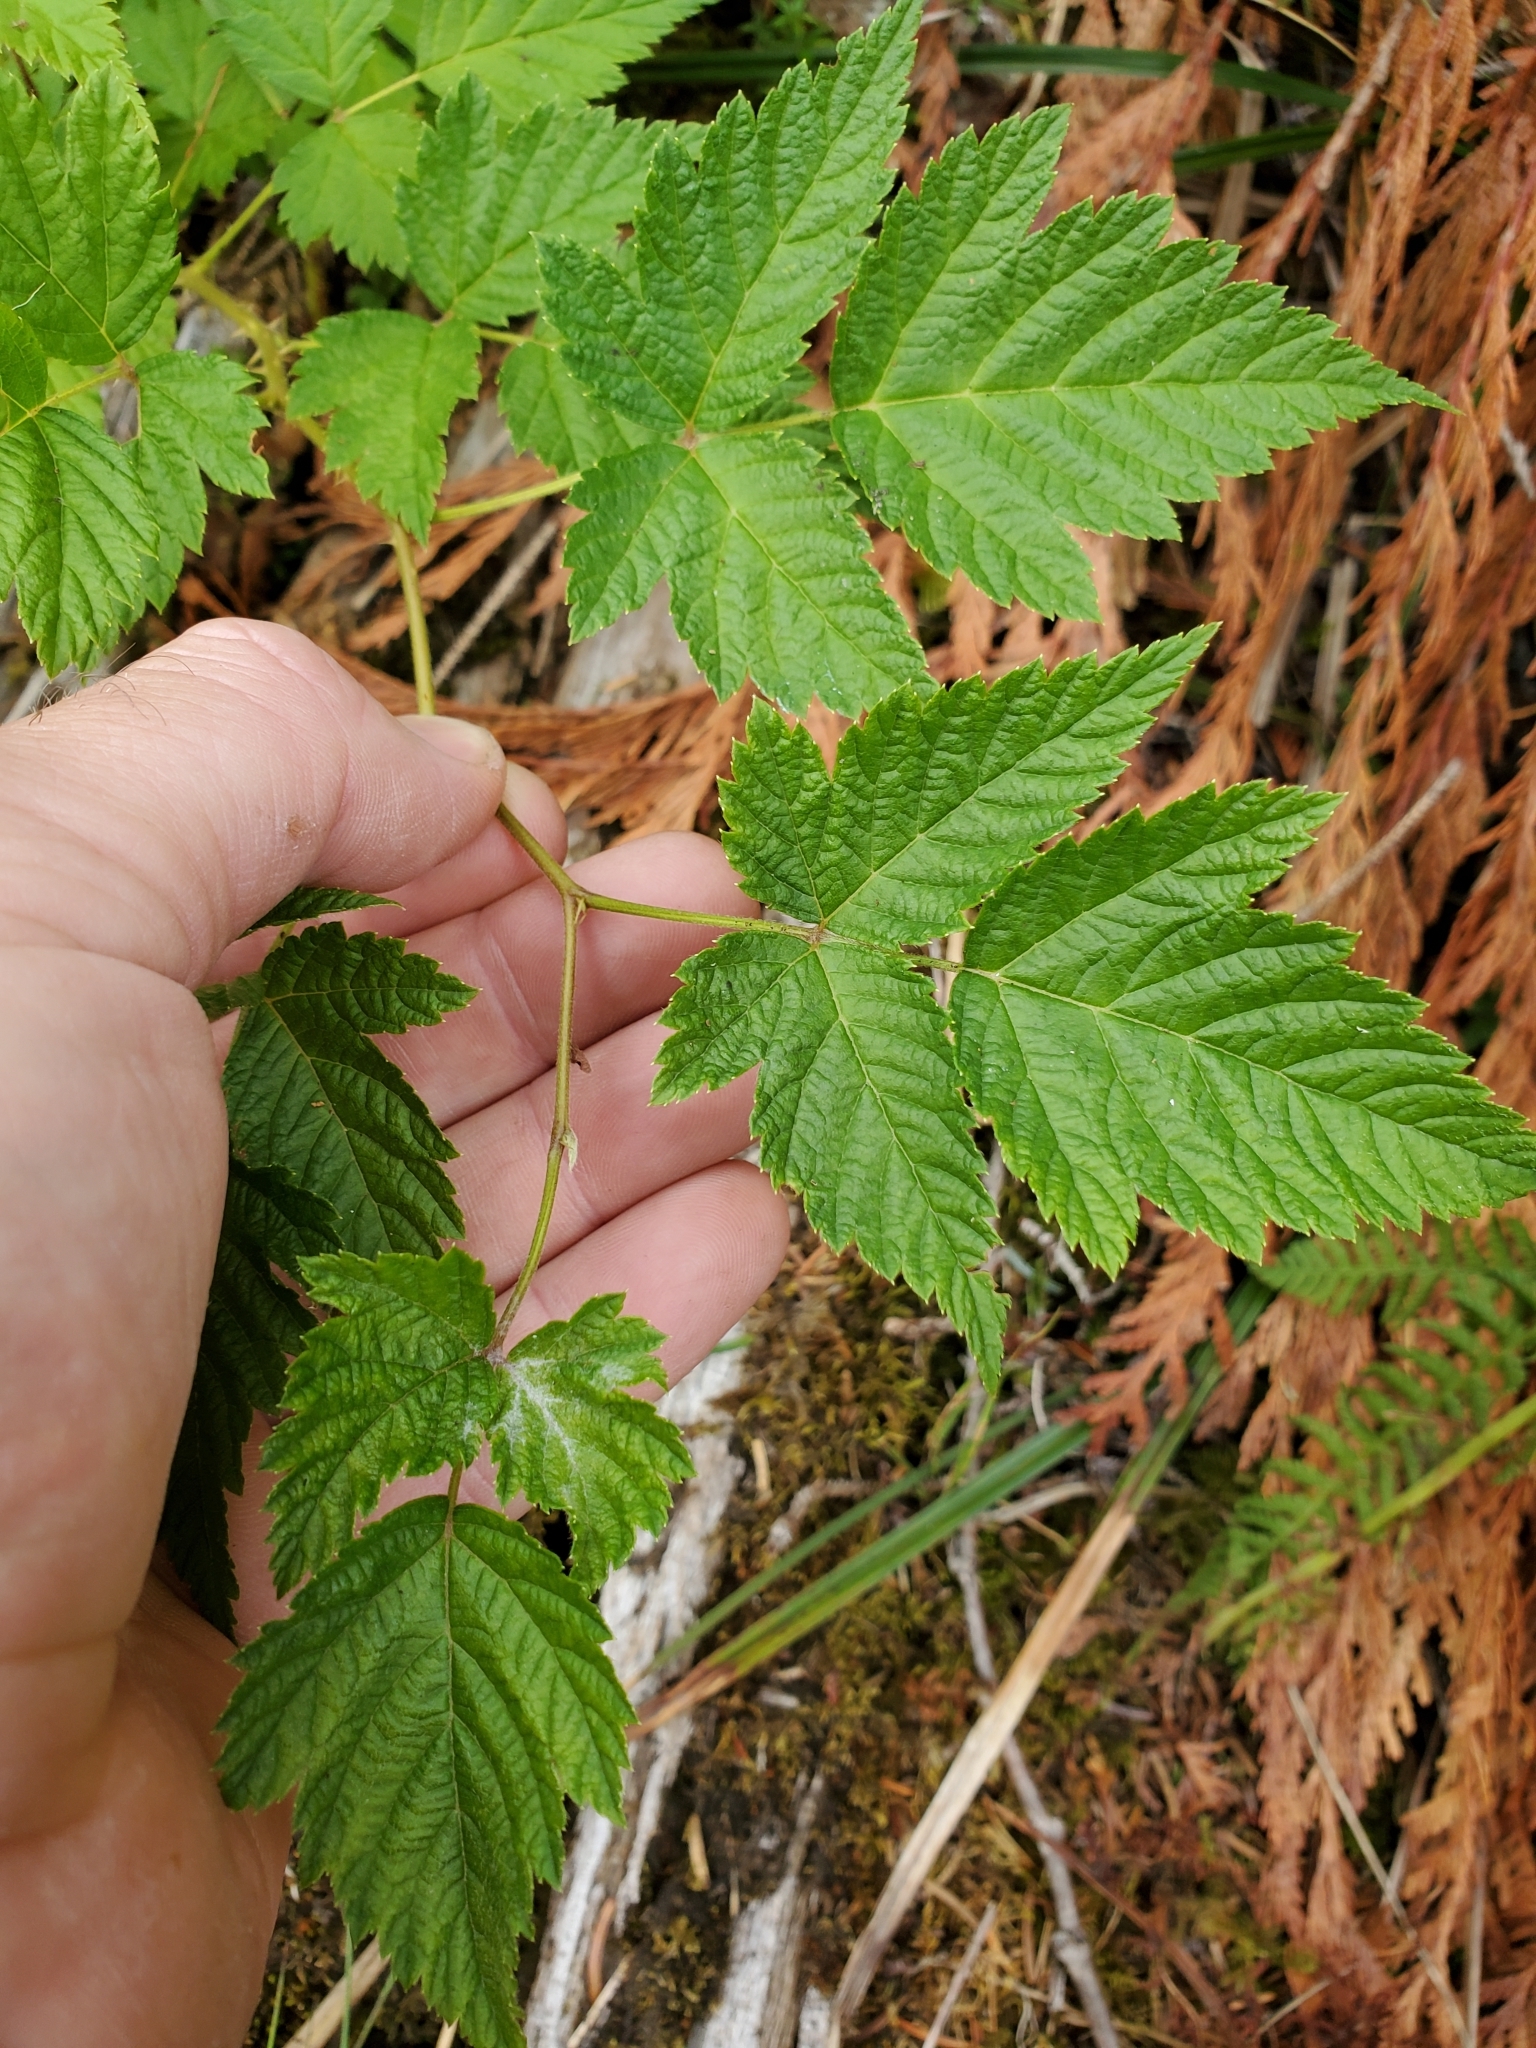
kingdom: Plantae
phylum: Tracheophyta
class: Magnoliopsida
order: Rosales
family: Rosaceae
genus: Rubus
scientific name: Rubus spectabilis
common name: Salmonberry
